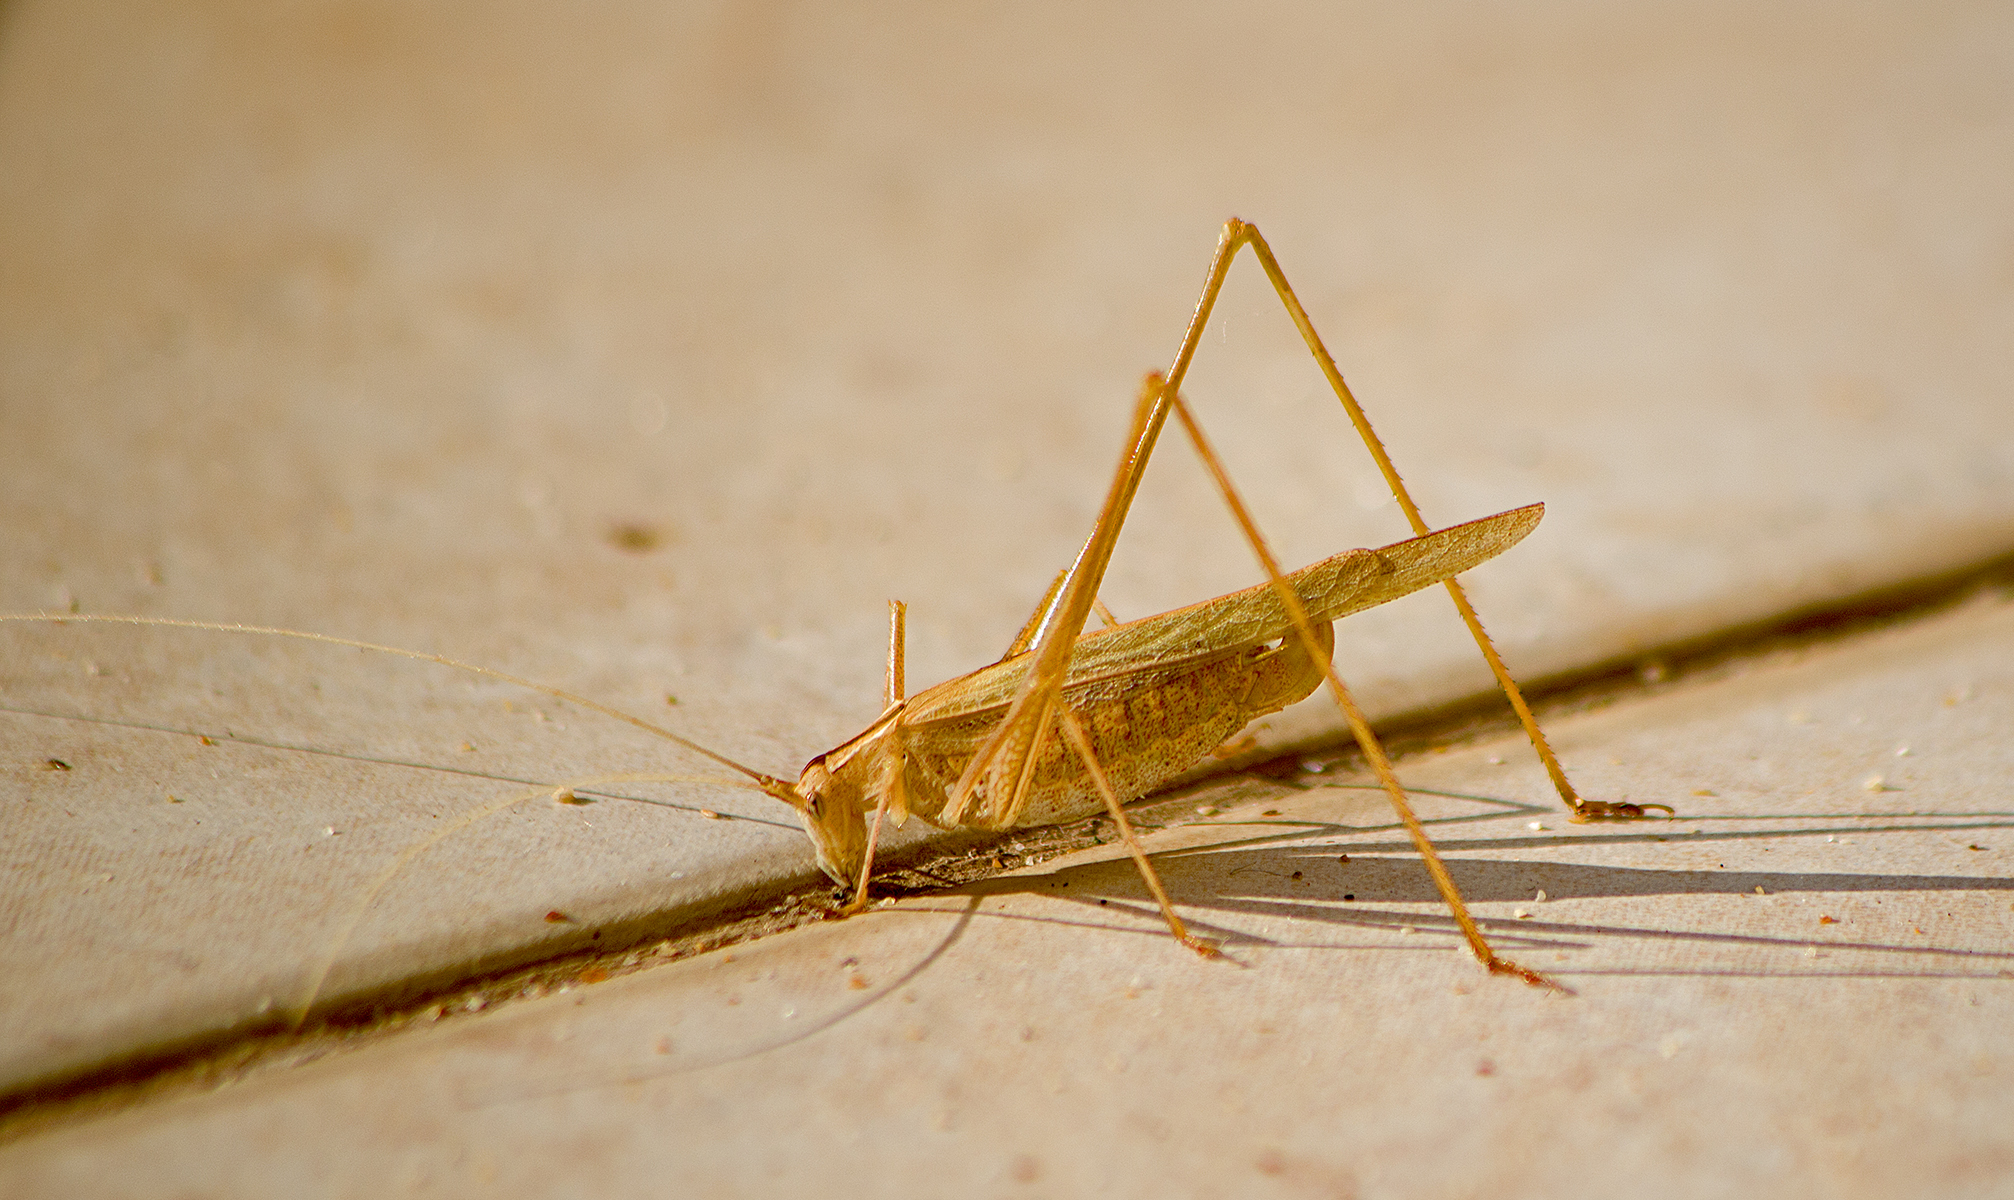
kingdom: Animalia
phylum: Arthropoda
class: Insecta
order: Orthoptera
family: Tettigoniidae
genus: Tylopsis
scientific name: Tylopsis lilifolia
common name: Lily bush-cricket
